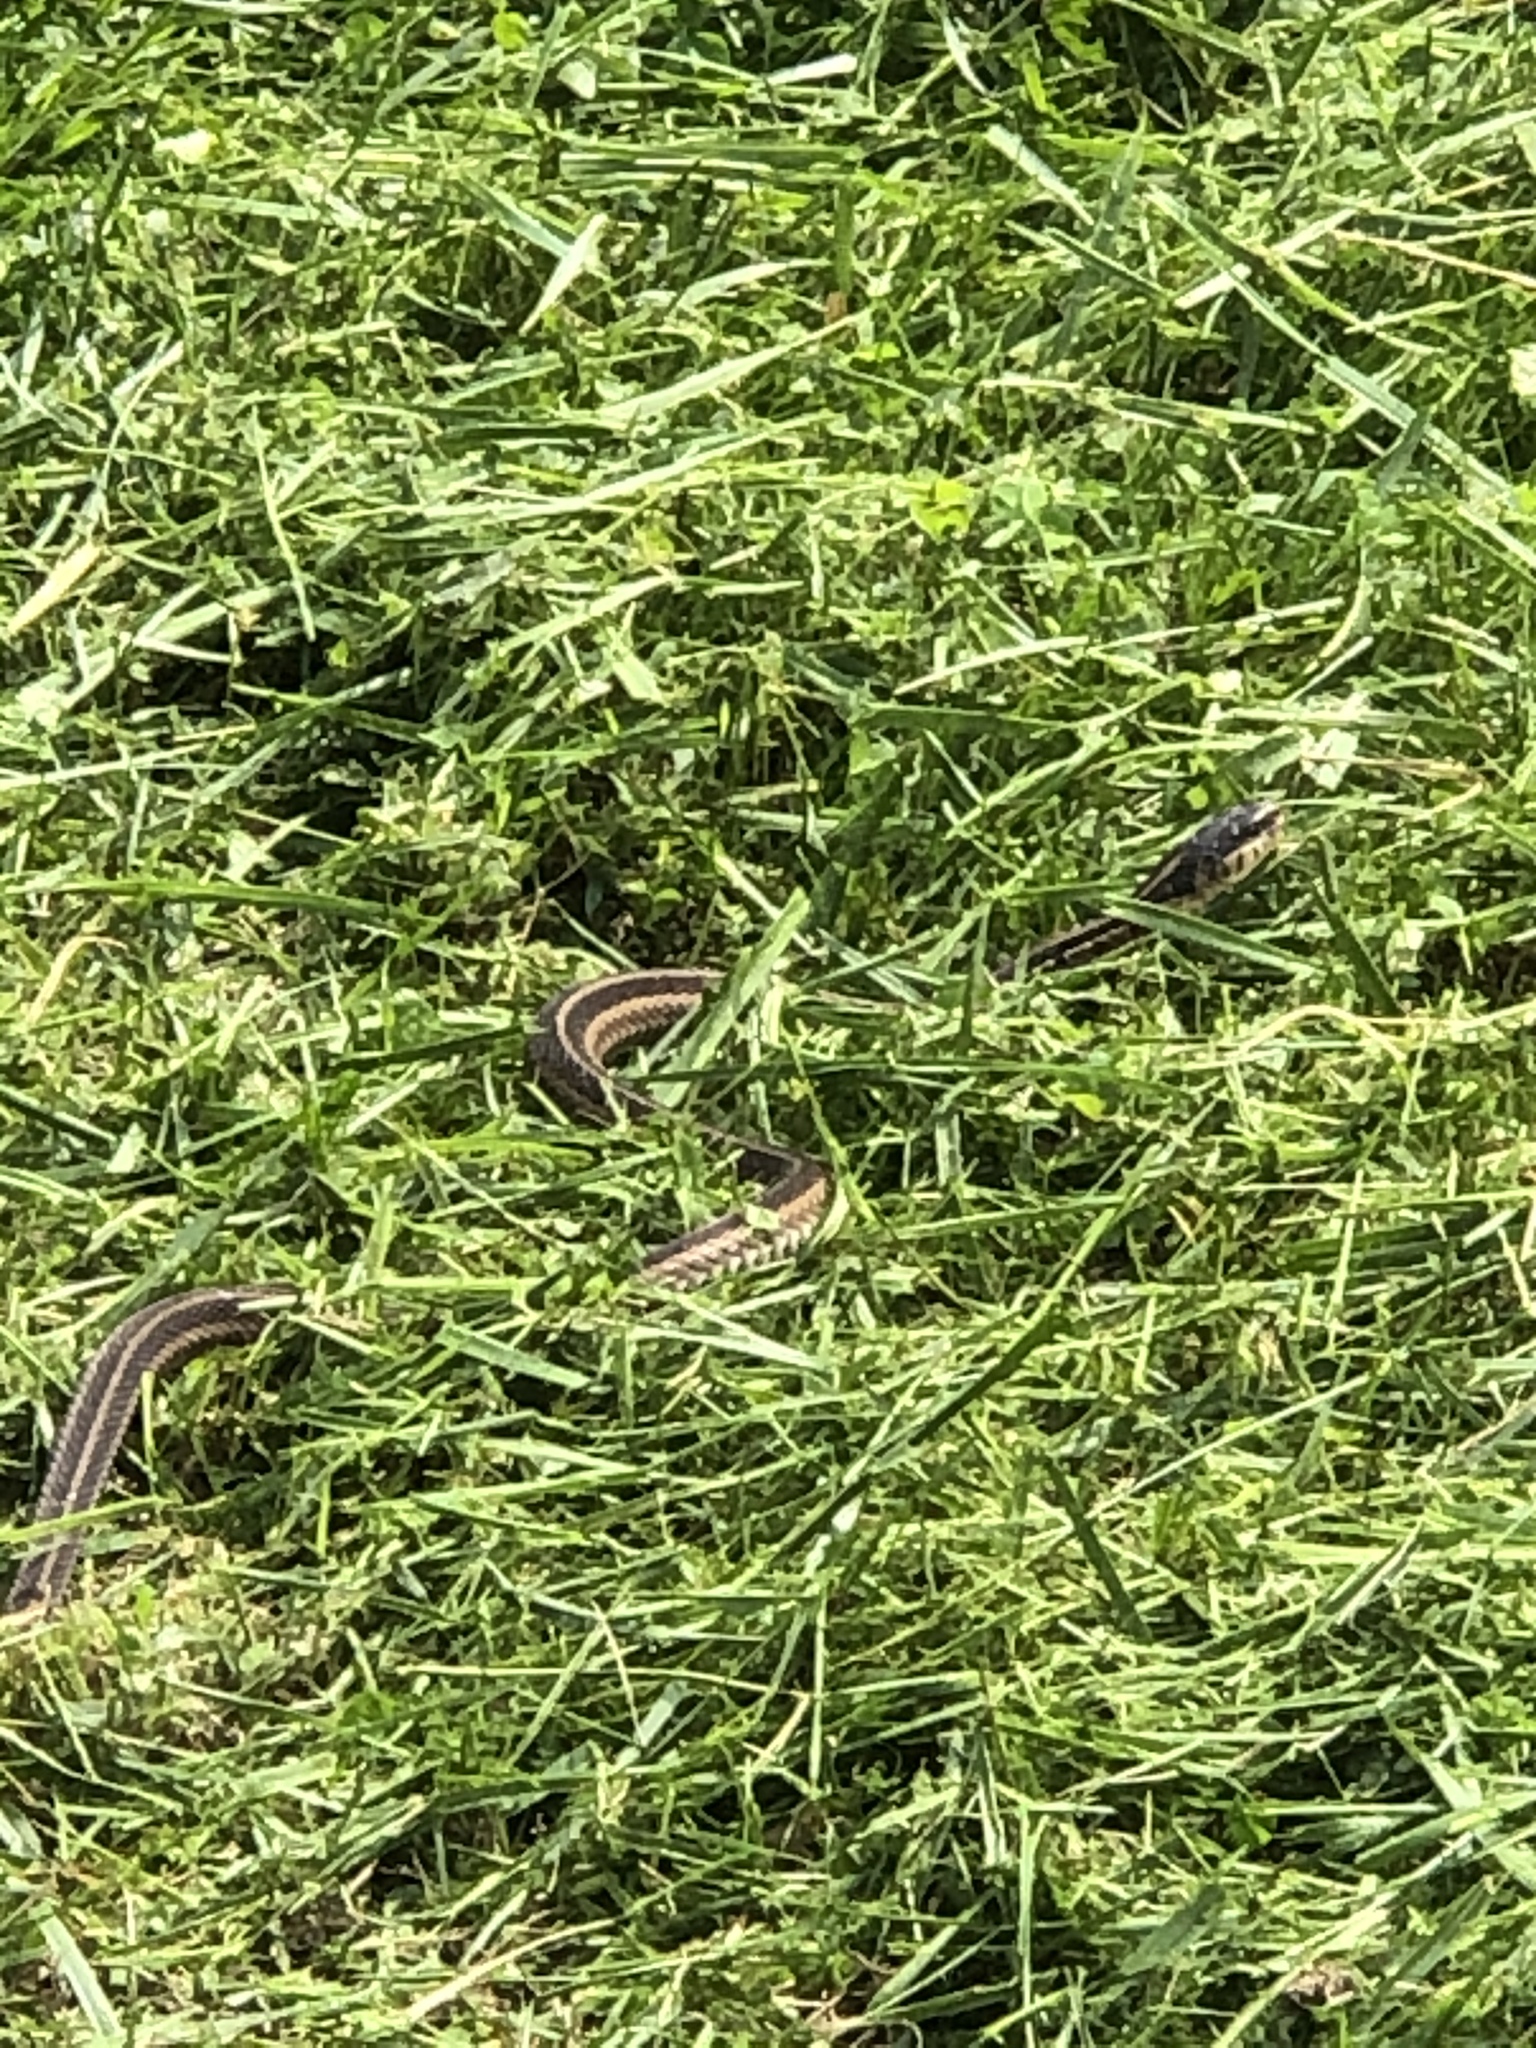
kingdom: Animalia
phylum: Chordata
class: Squamata
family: Colubridae
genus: Thamnophis
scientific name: Thamnophis sirtalis
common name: Common garter snake
